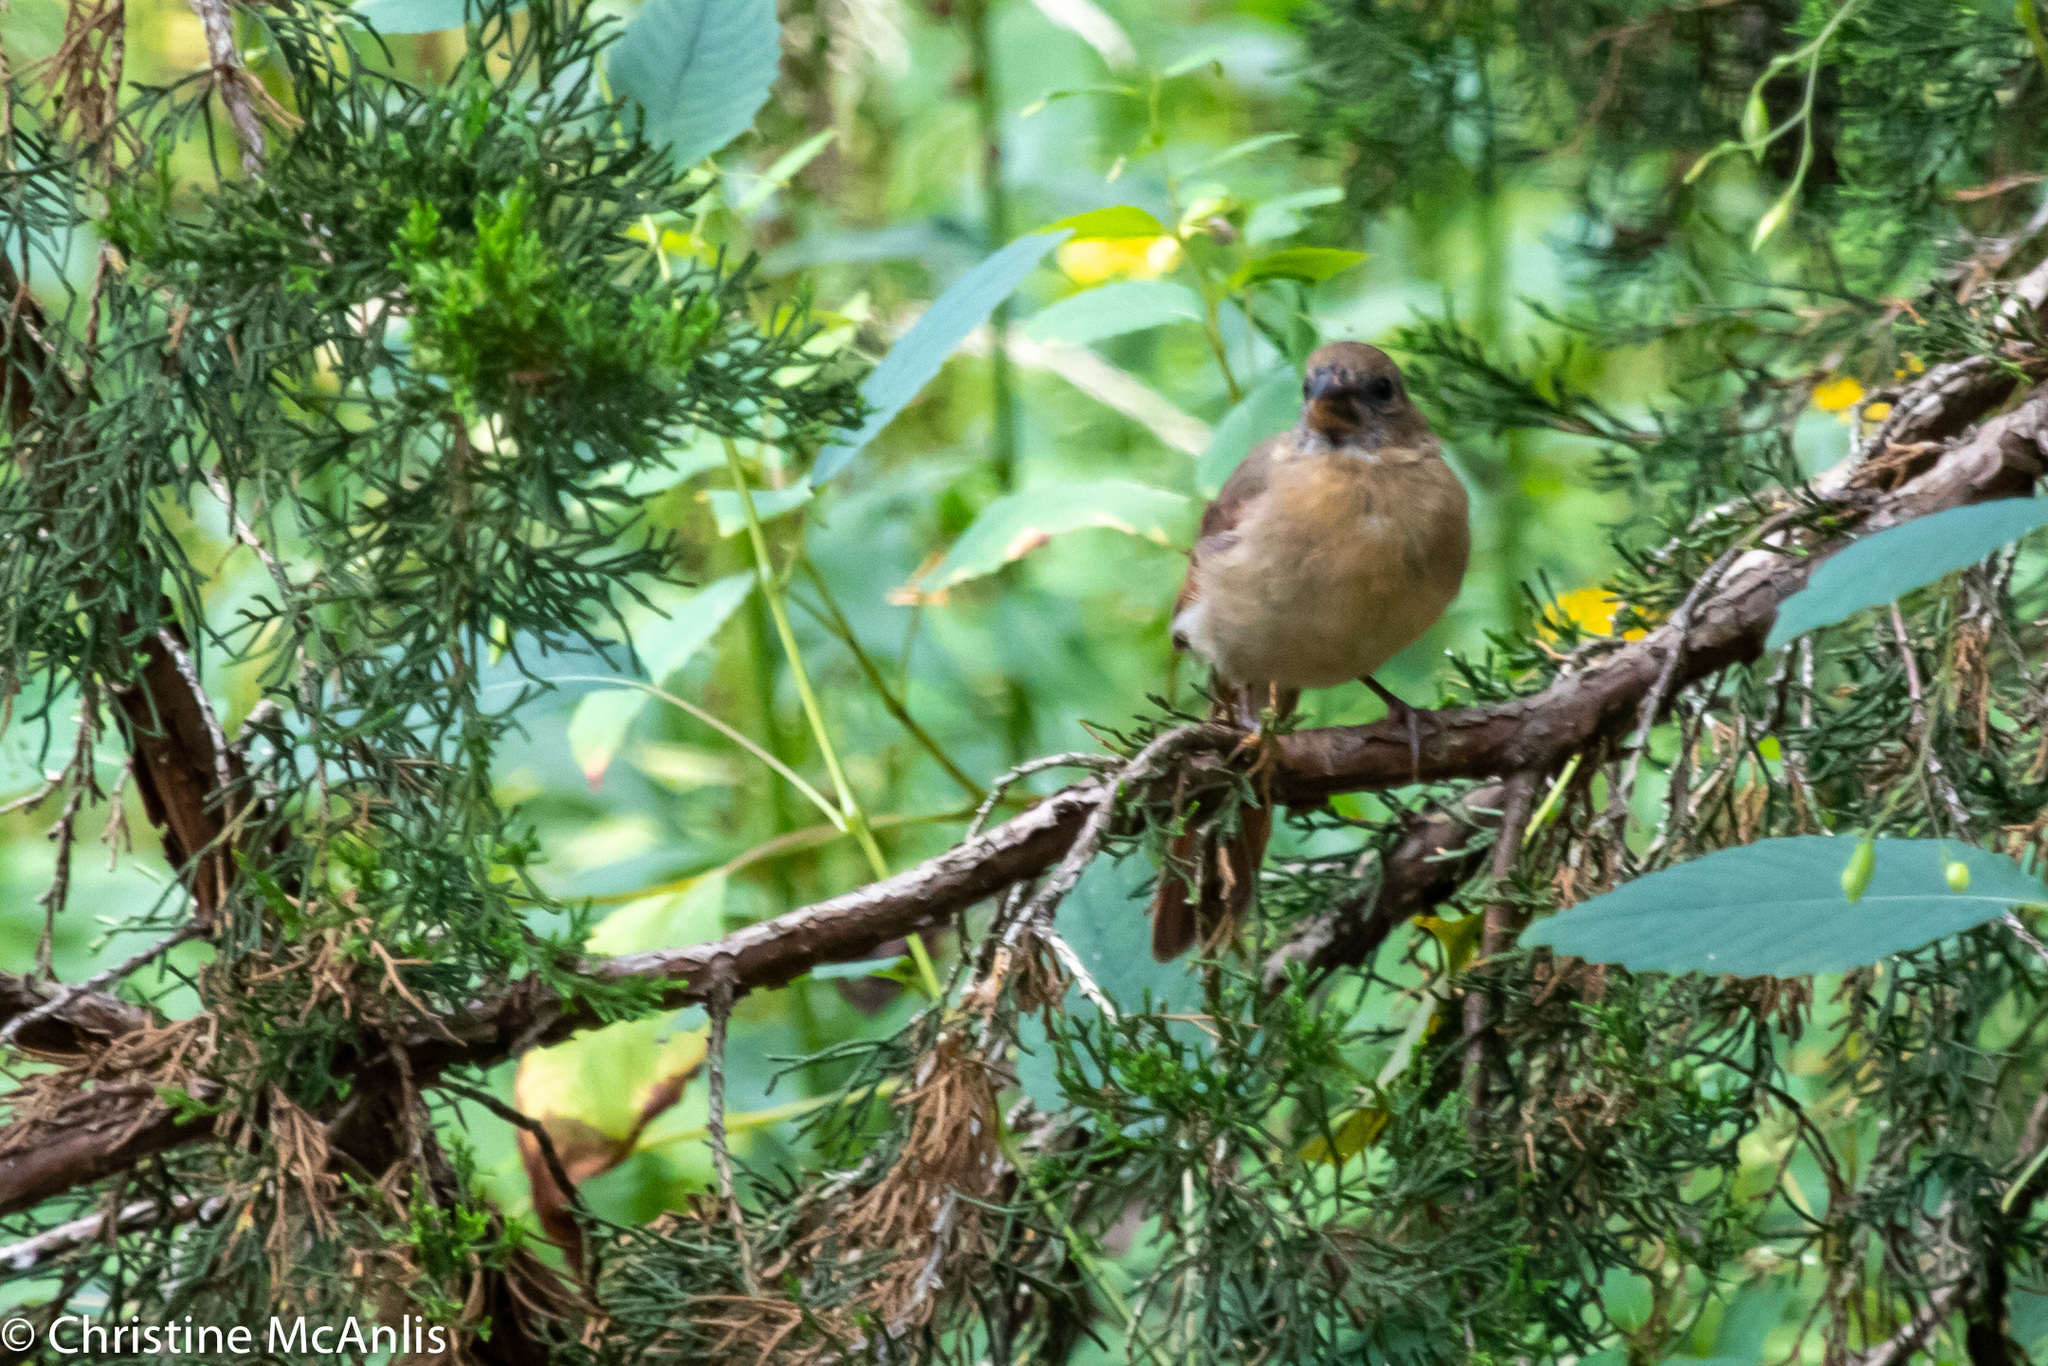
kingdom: Animalia
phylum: Chordata
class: Aves
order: Passeriformes
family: Cardinalidae
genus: Cardinalis
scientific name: Cardinalis cardinalis
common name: Northern cardinal
